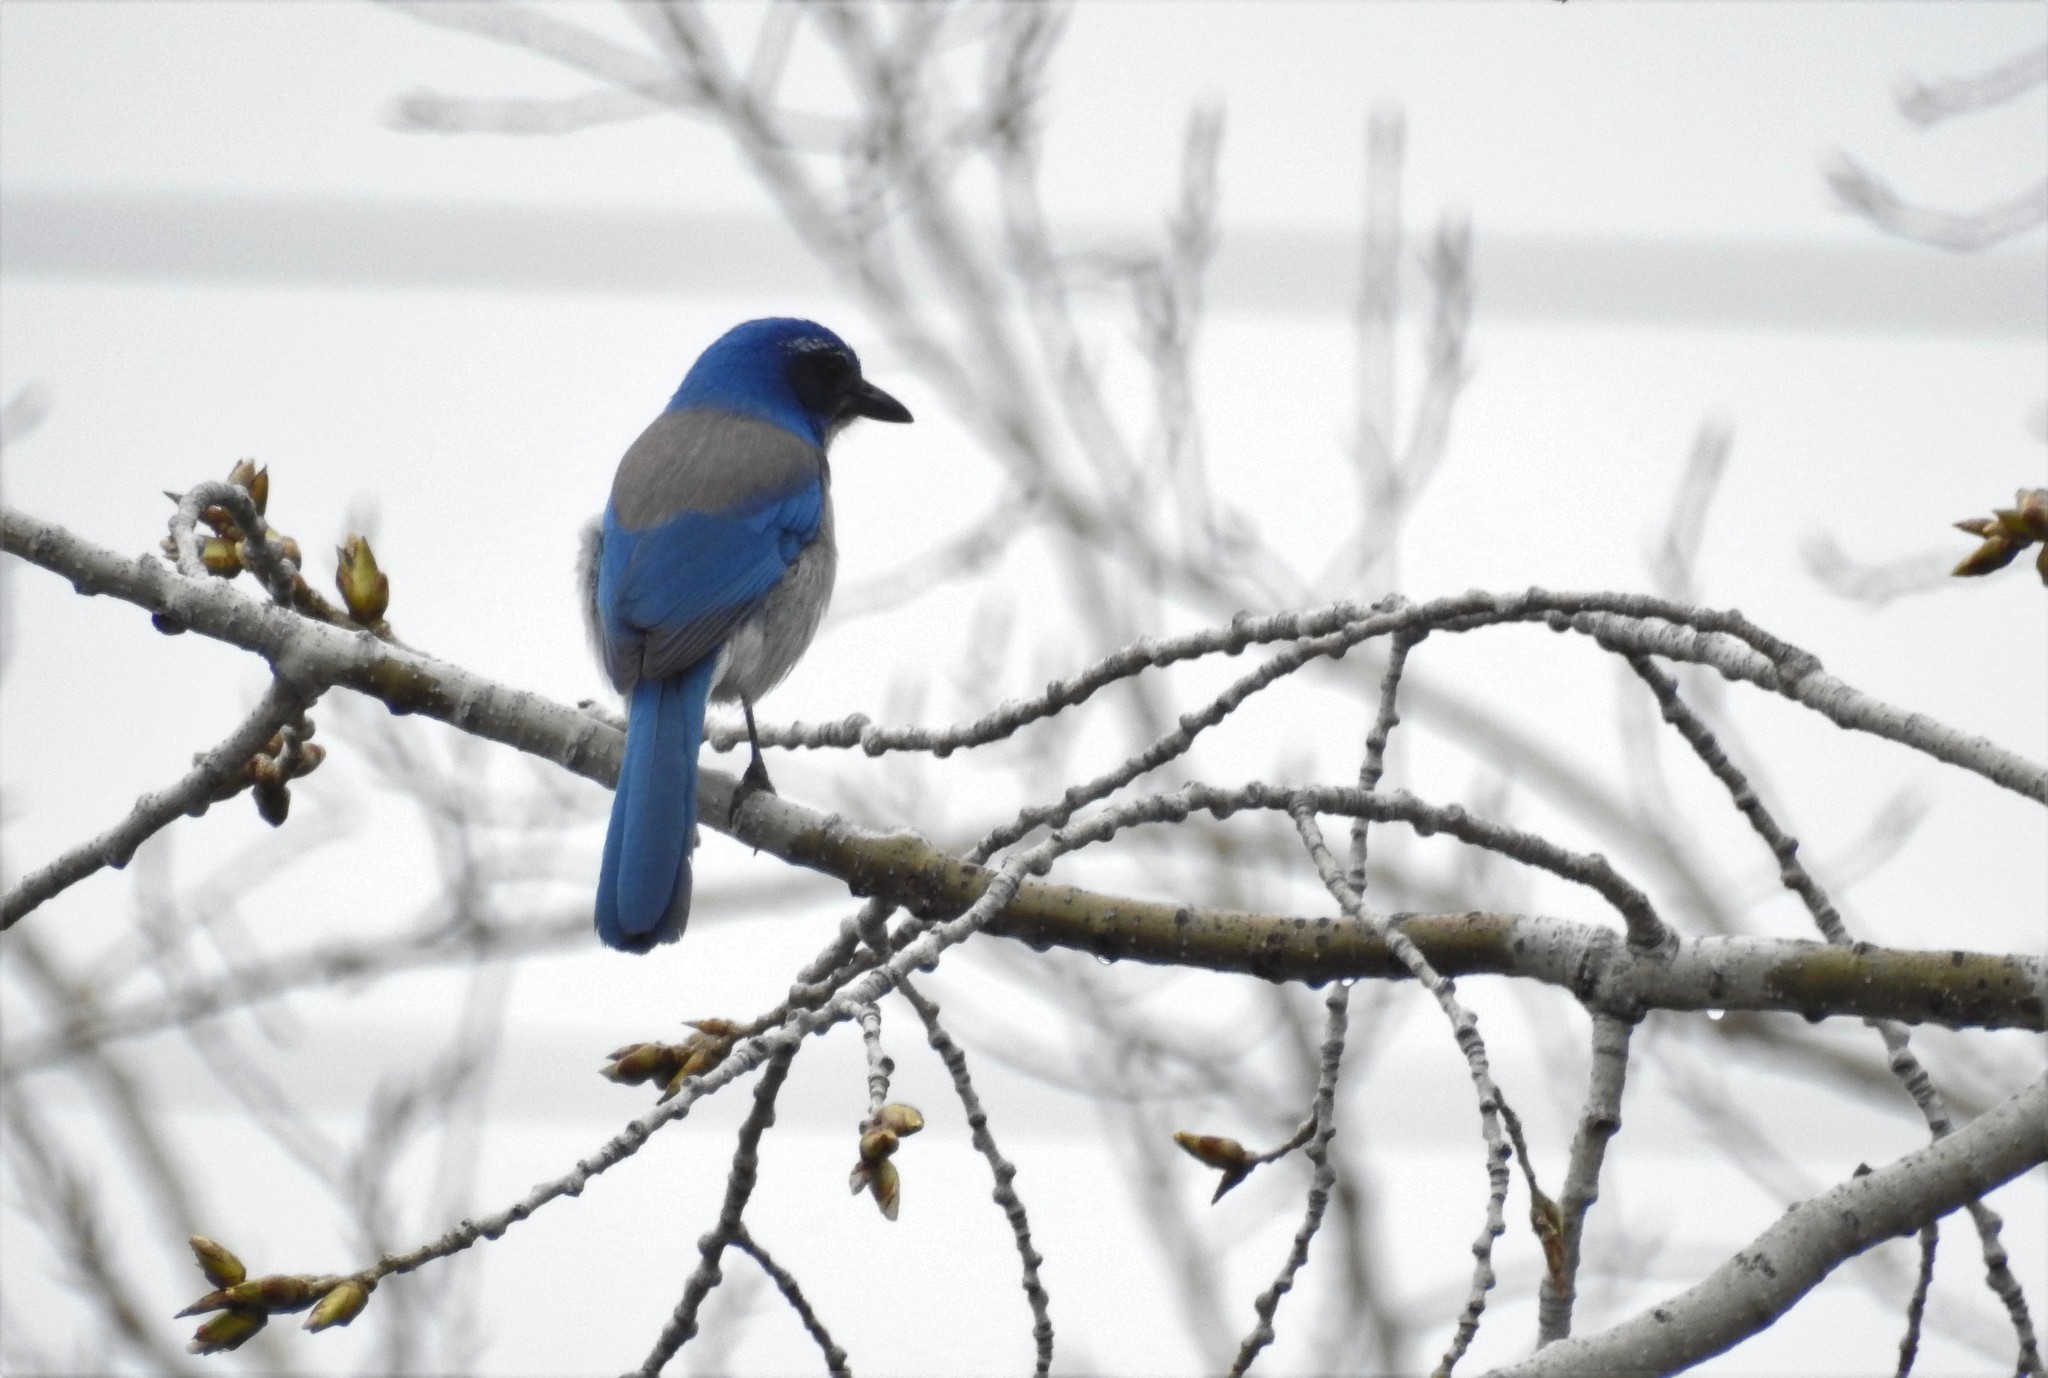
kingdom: Animalia
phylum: Chordata
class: Aves
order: Passeriformes
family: Corvidae
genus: Aphelocoma
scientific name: Aphelocoma californica
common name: California scrub-jay
